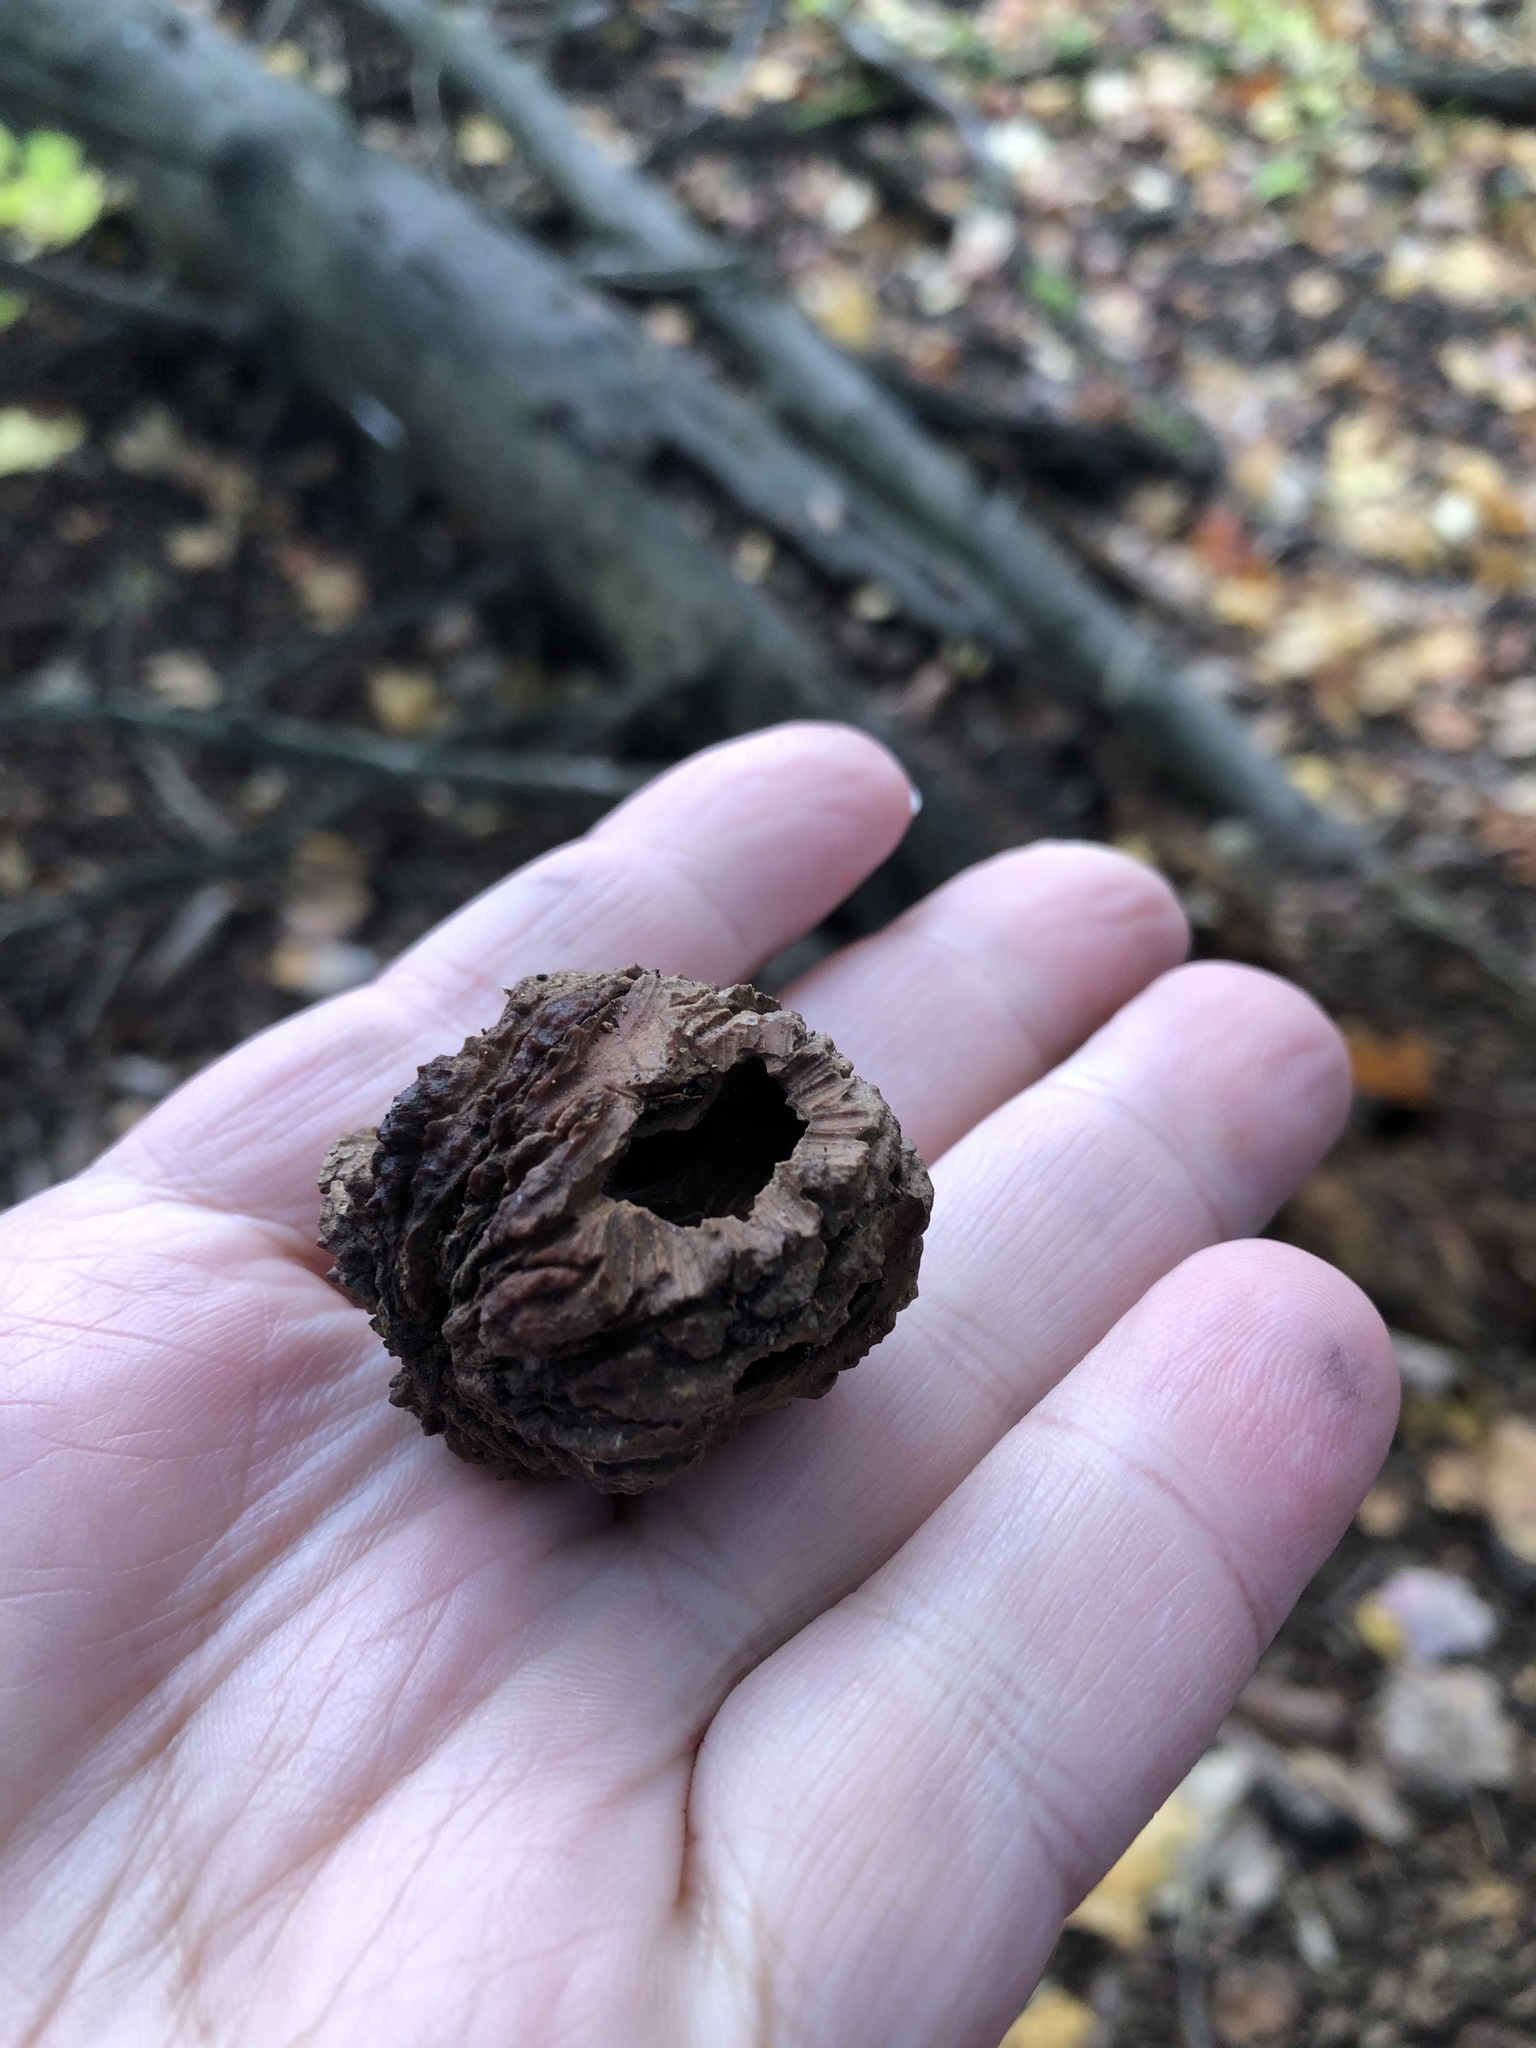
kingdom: Plantae
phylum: Tracheophyta
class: Magnoliopsida
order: Fagales
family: Juglandaceae
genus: Juglans
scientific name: Juglans nigra
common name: Black walnut
